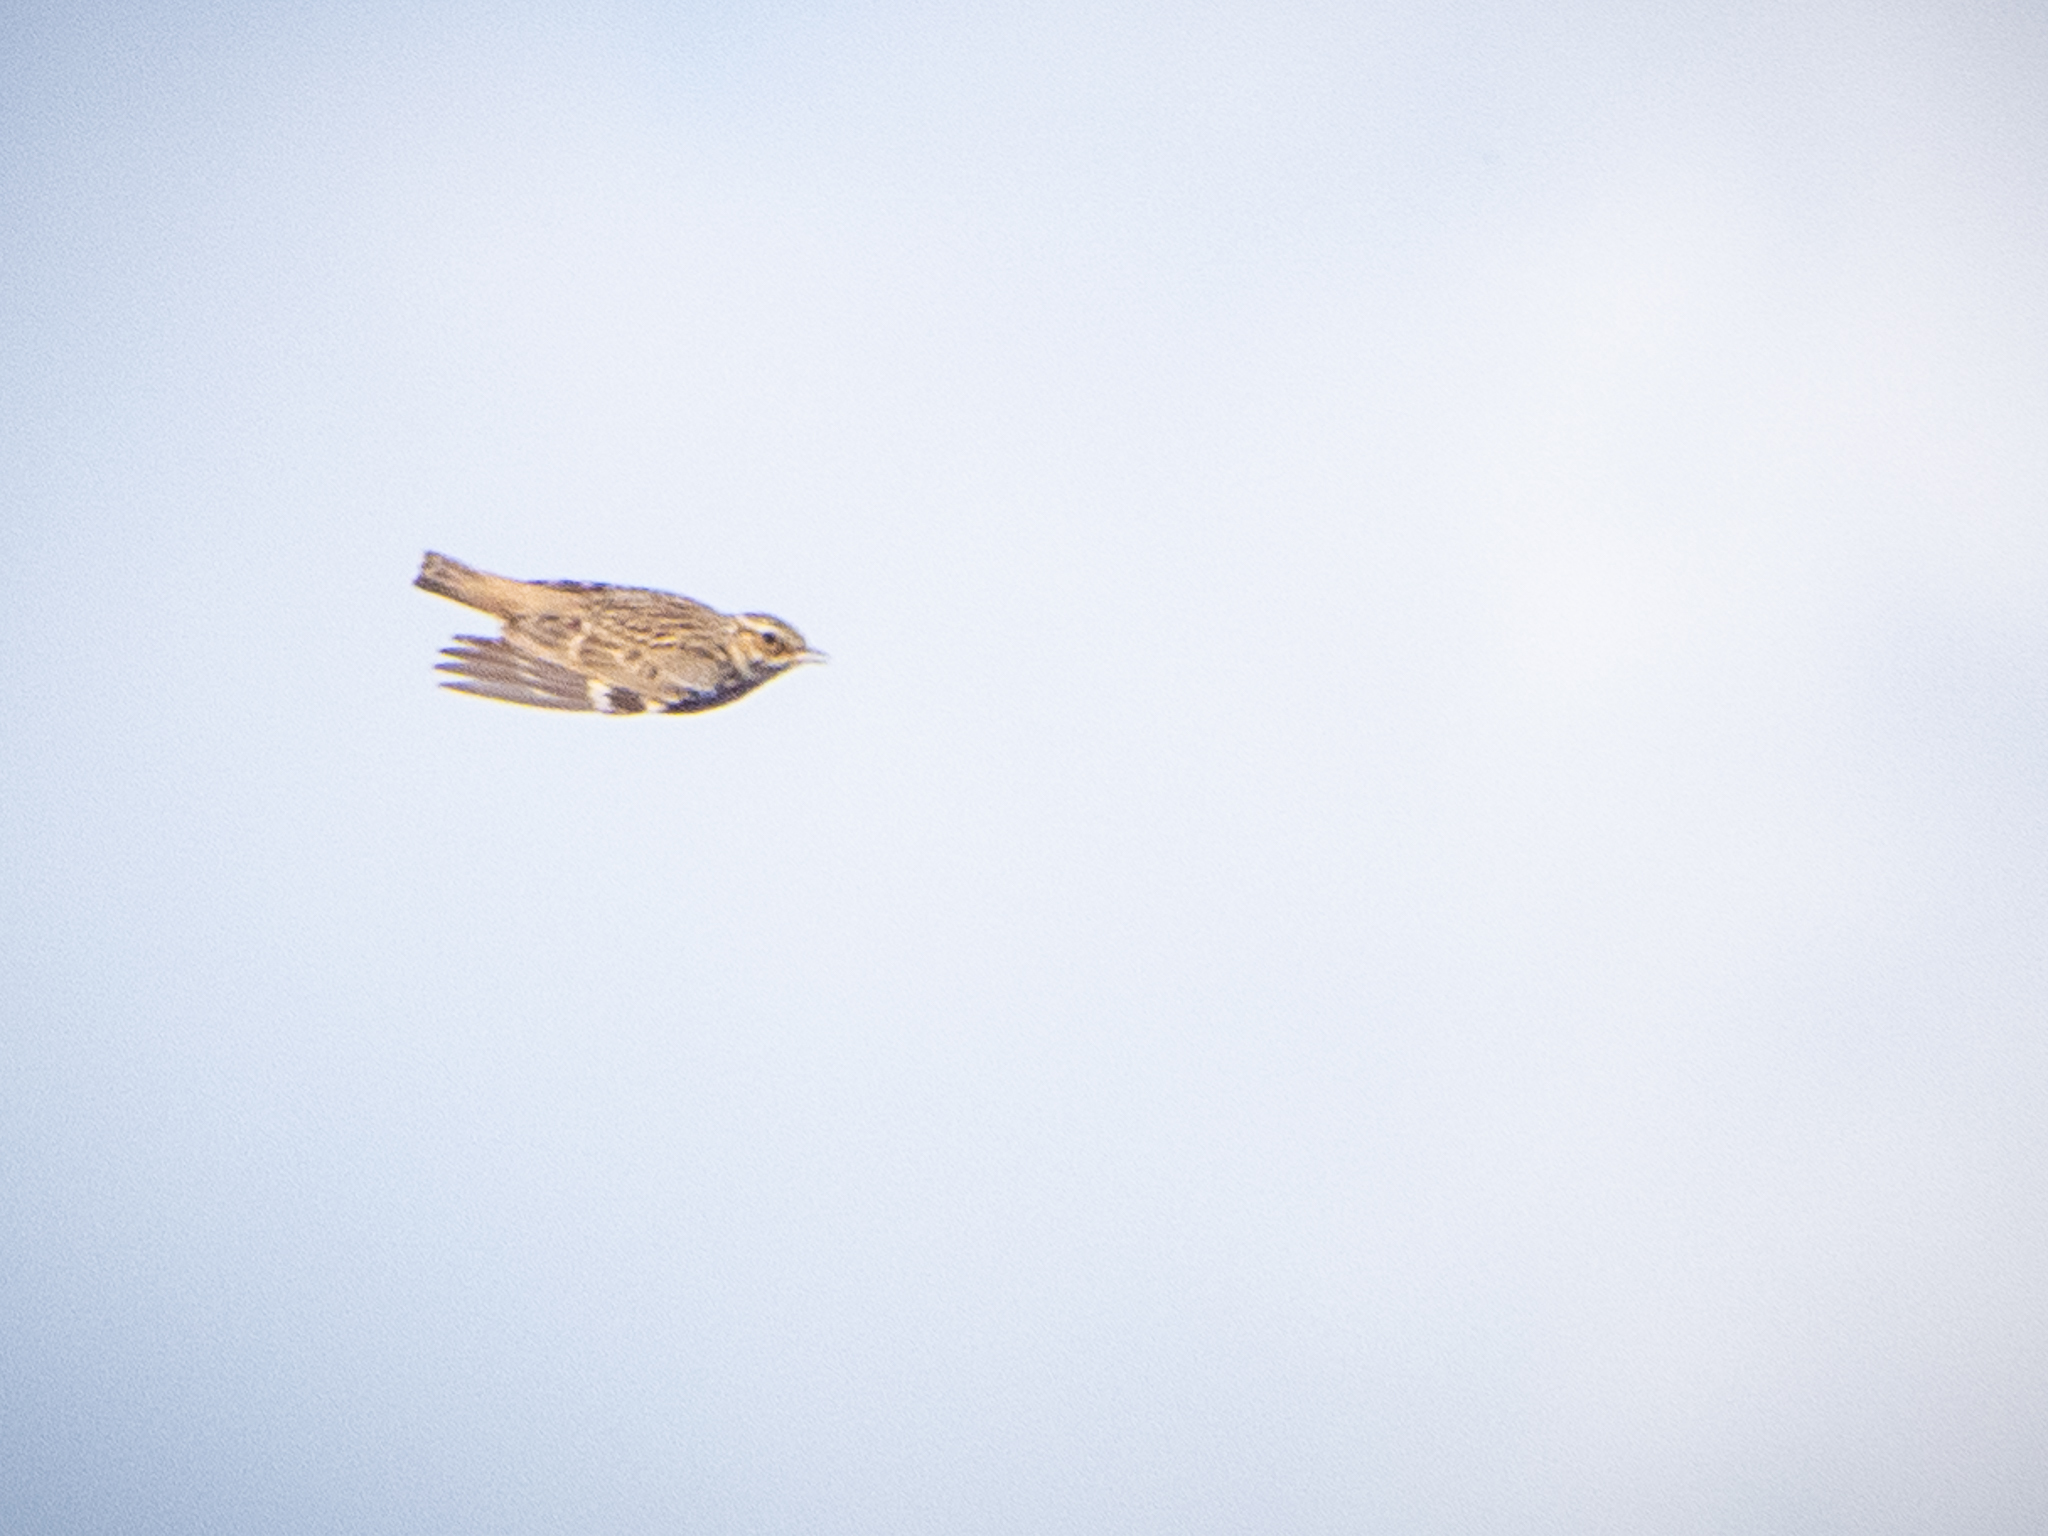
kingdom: Animalia
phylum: Chordata
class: Aves
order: Passeriformes
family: Alaudidae
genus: Lullula
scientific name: Lullula arborea
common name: Woodlark
